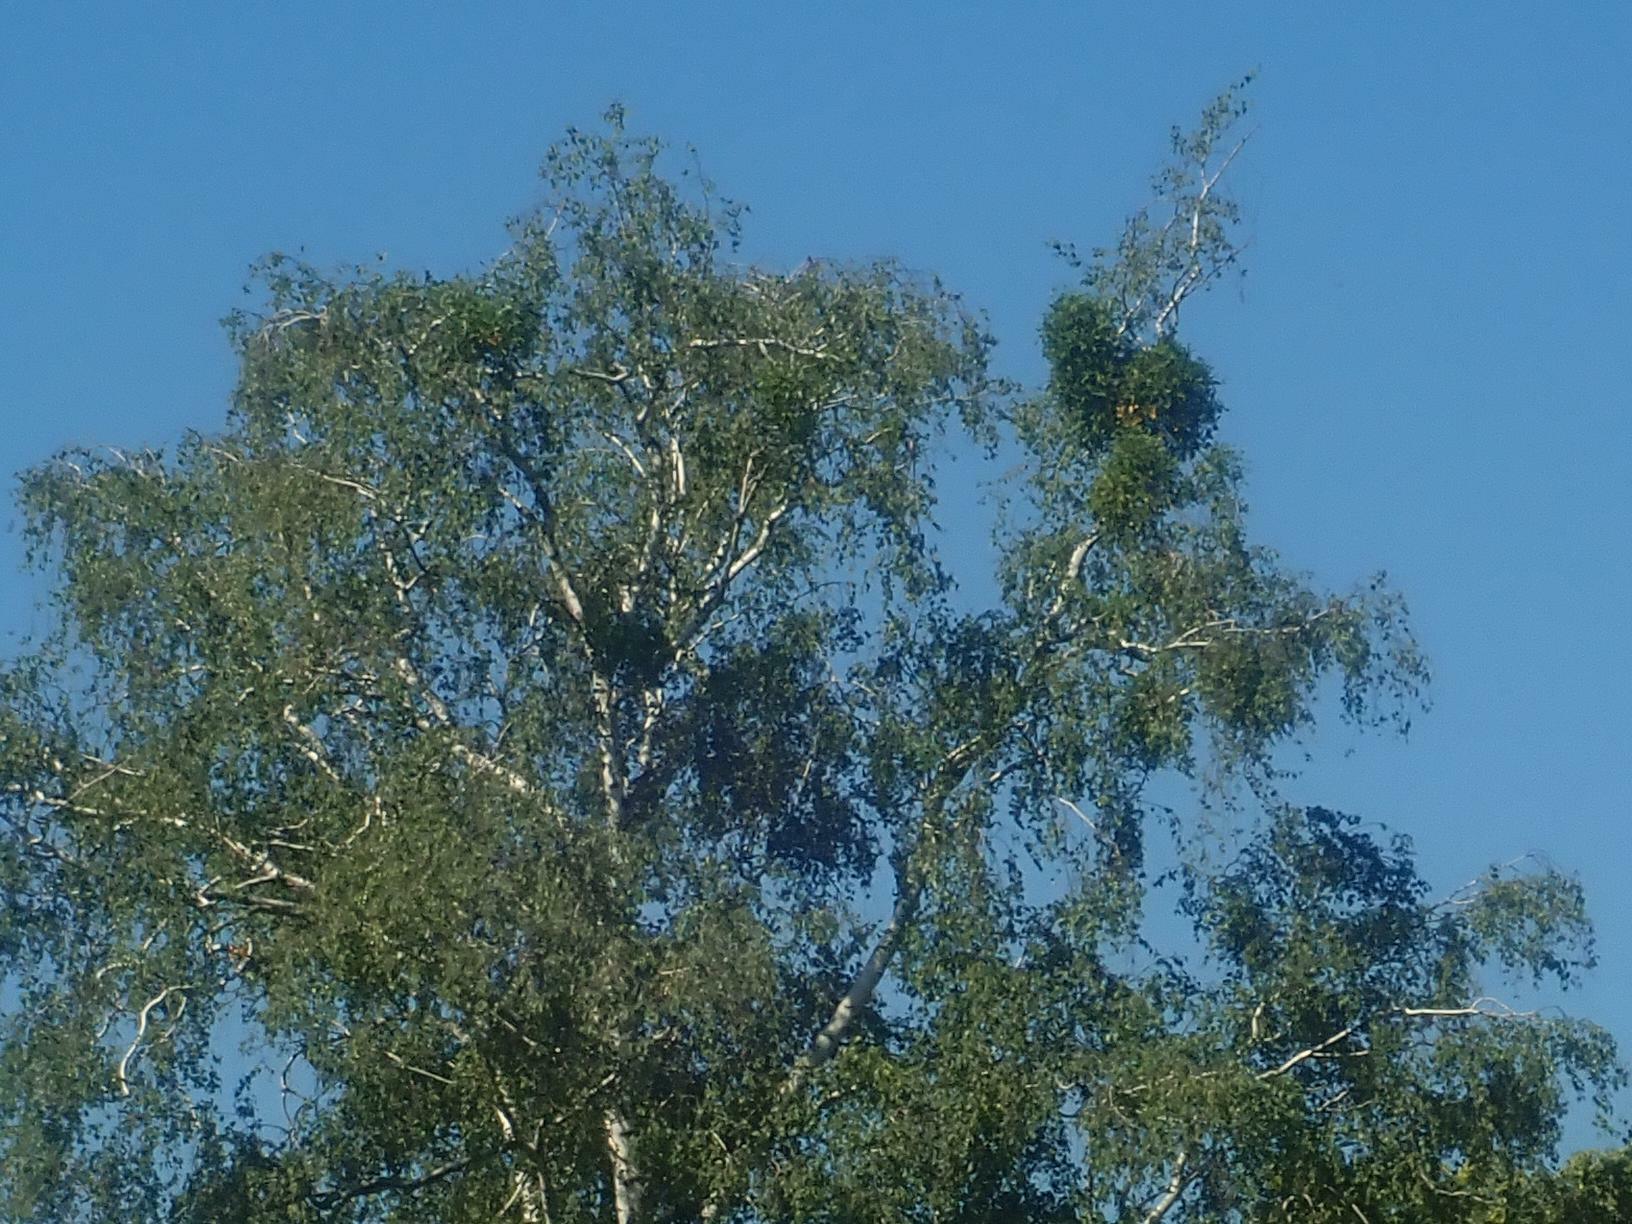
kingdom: Plantae
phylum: Tracheophyta
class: Magnoliopsida
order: Santalales
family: Viscaceae
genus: Viscum
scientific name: Viscum album
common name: Mistletoe
